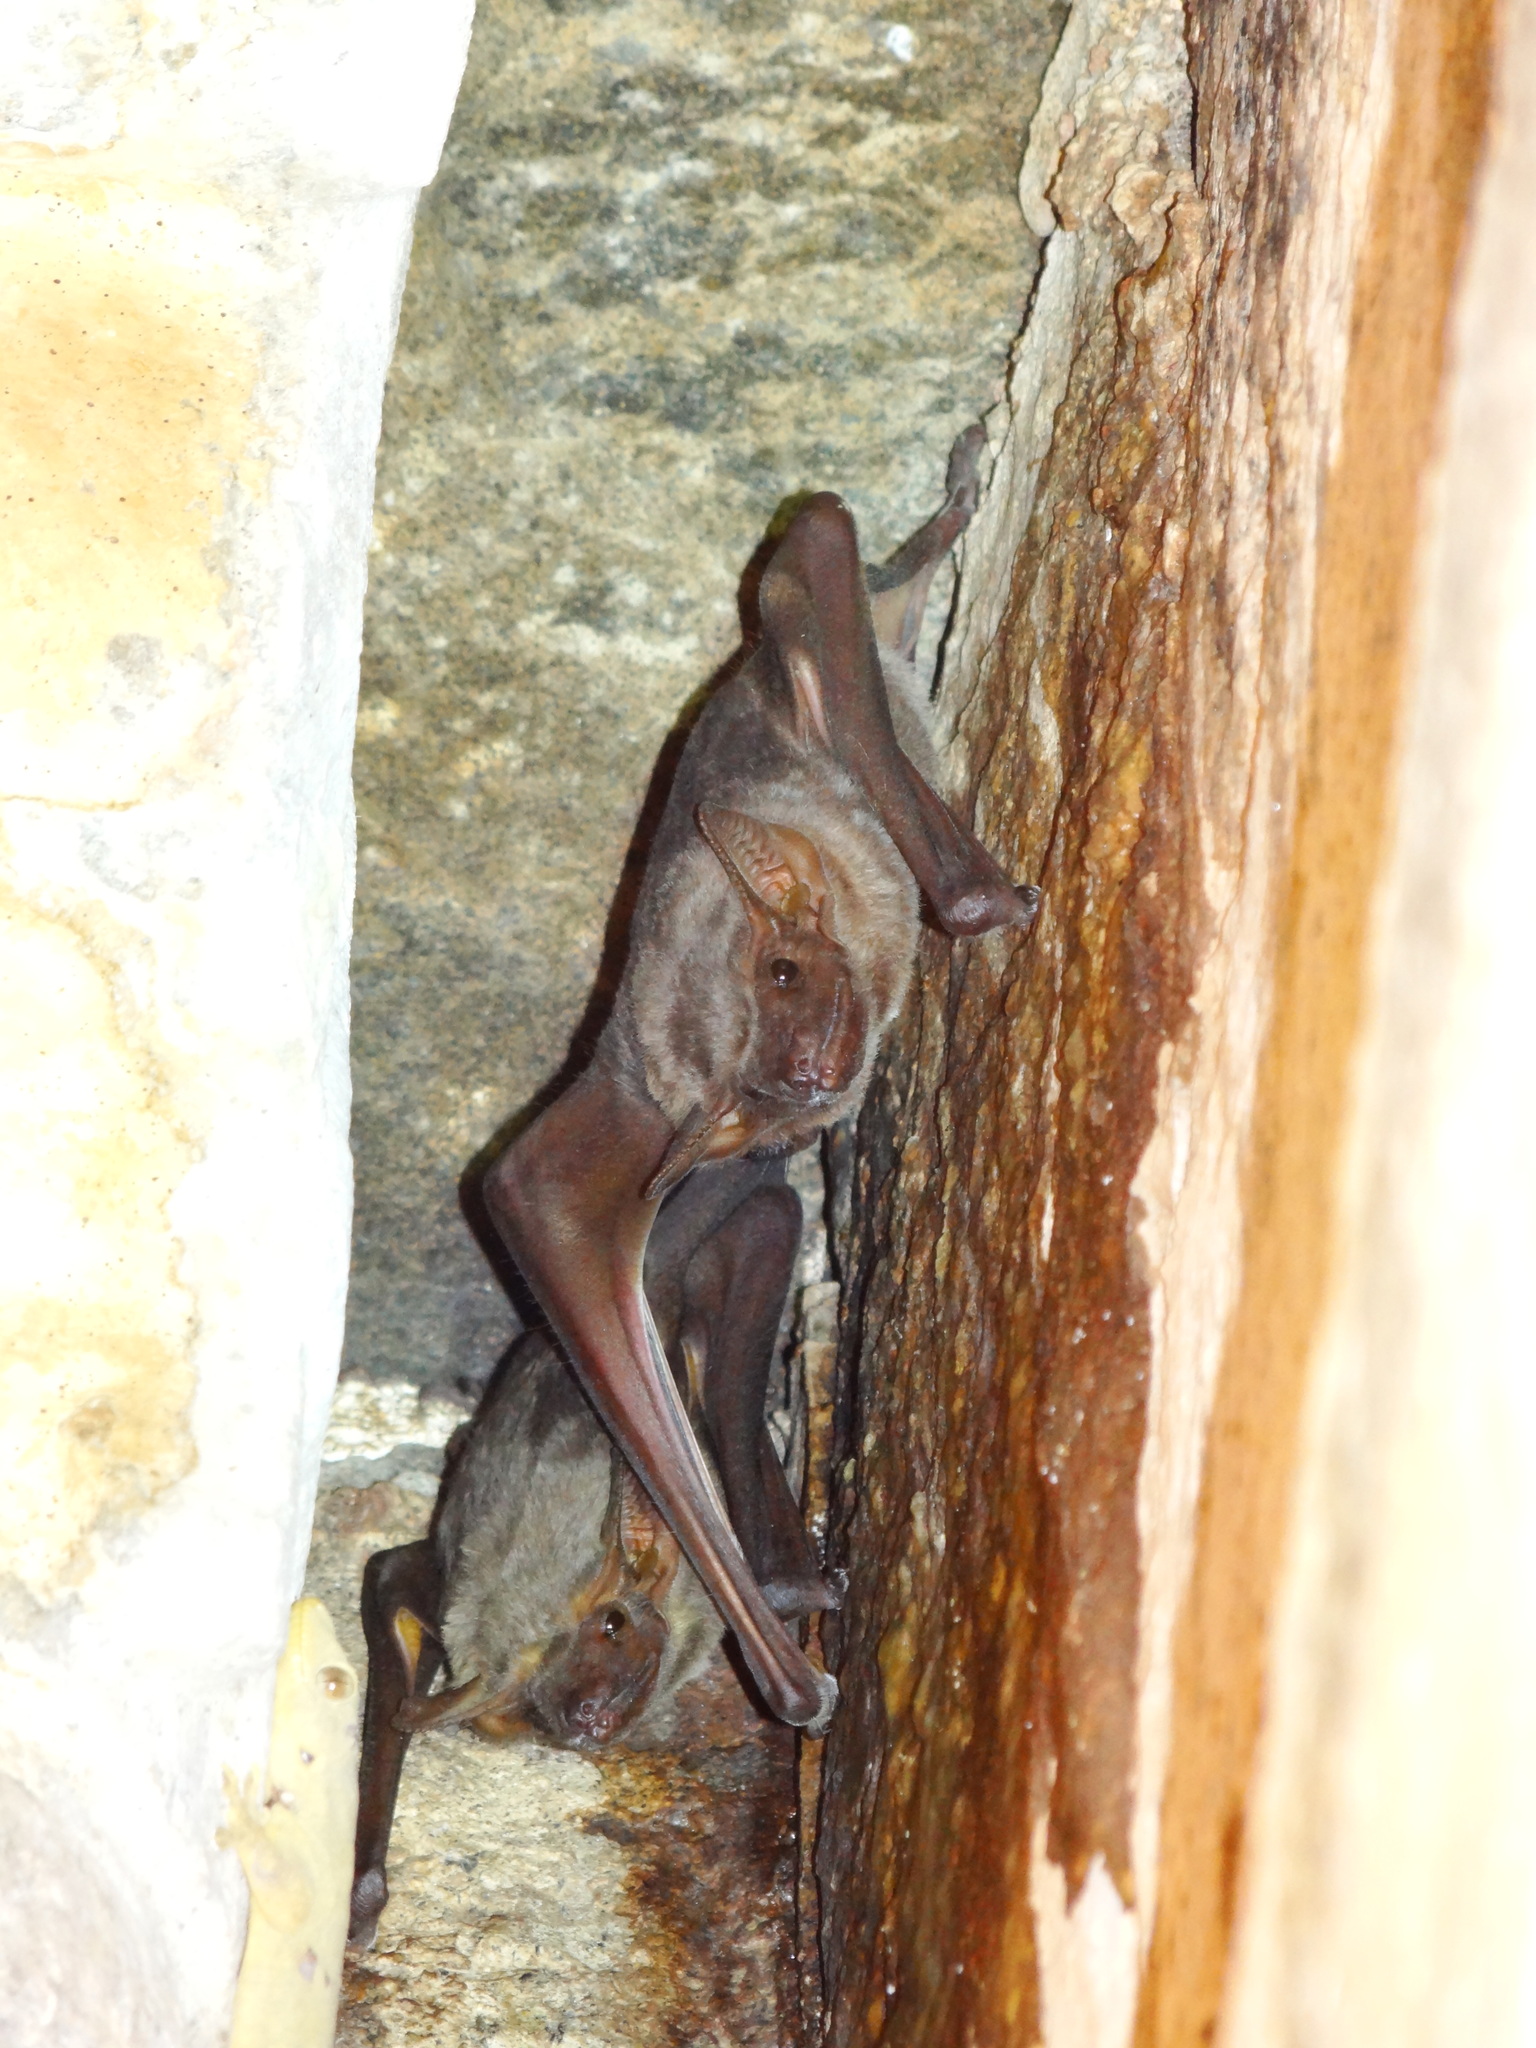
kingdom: Animalia
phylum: Chordata
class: Mammalia
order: Chiroptera
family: Emballonuridae
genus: Taphozous
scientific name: Taphozous nudiventris
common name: Naked-rumped tomb bat
